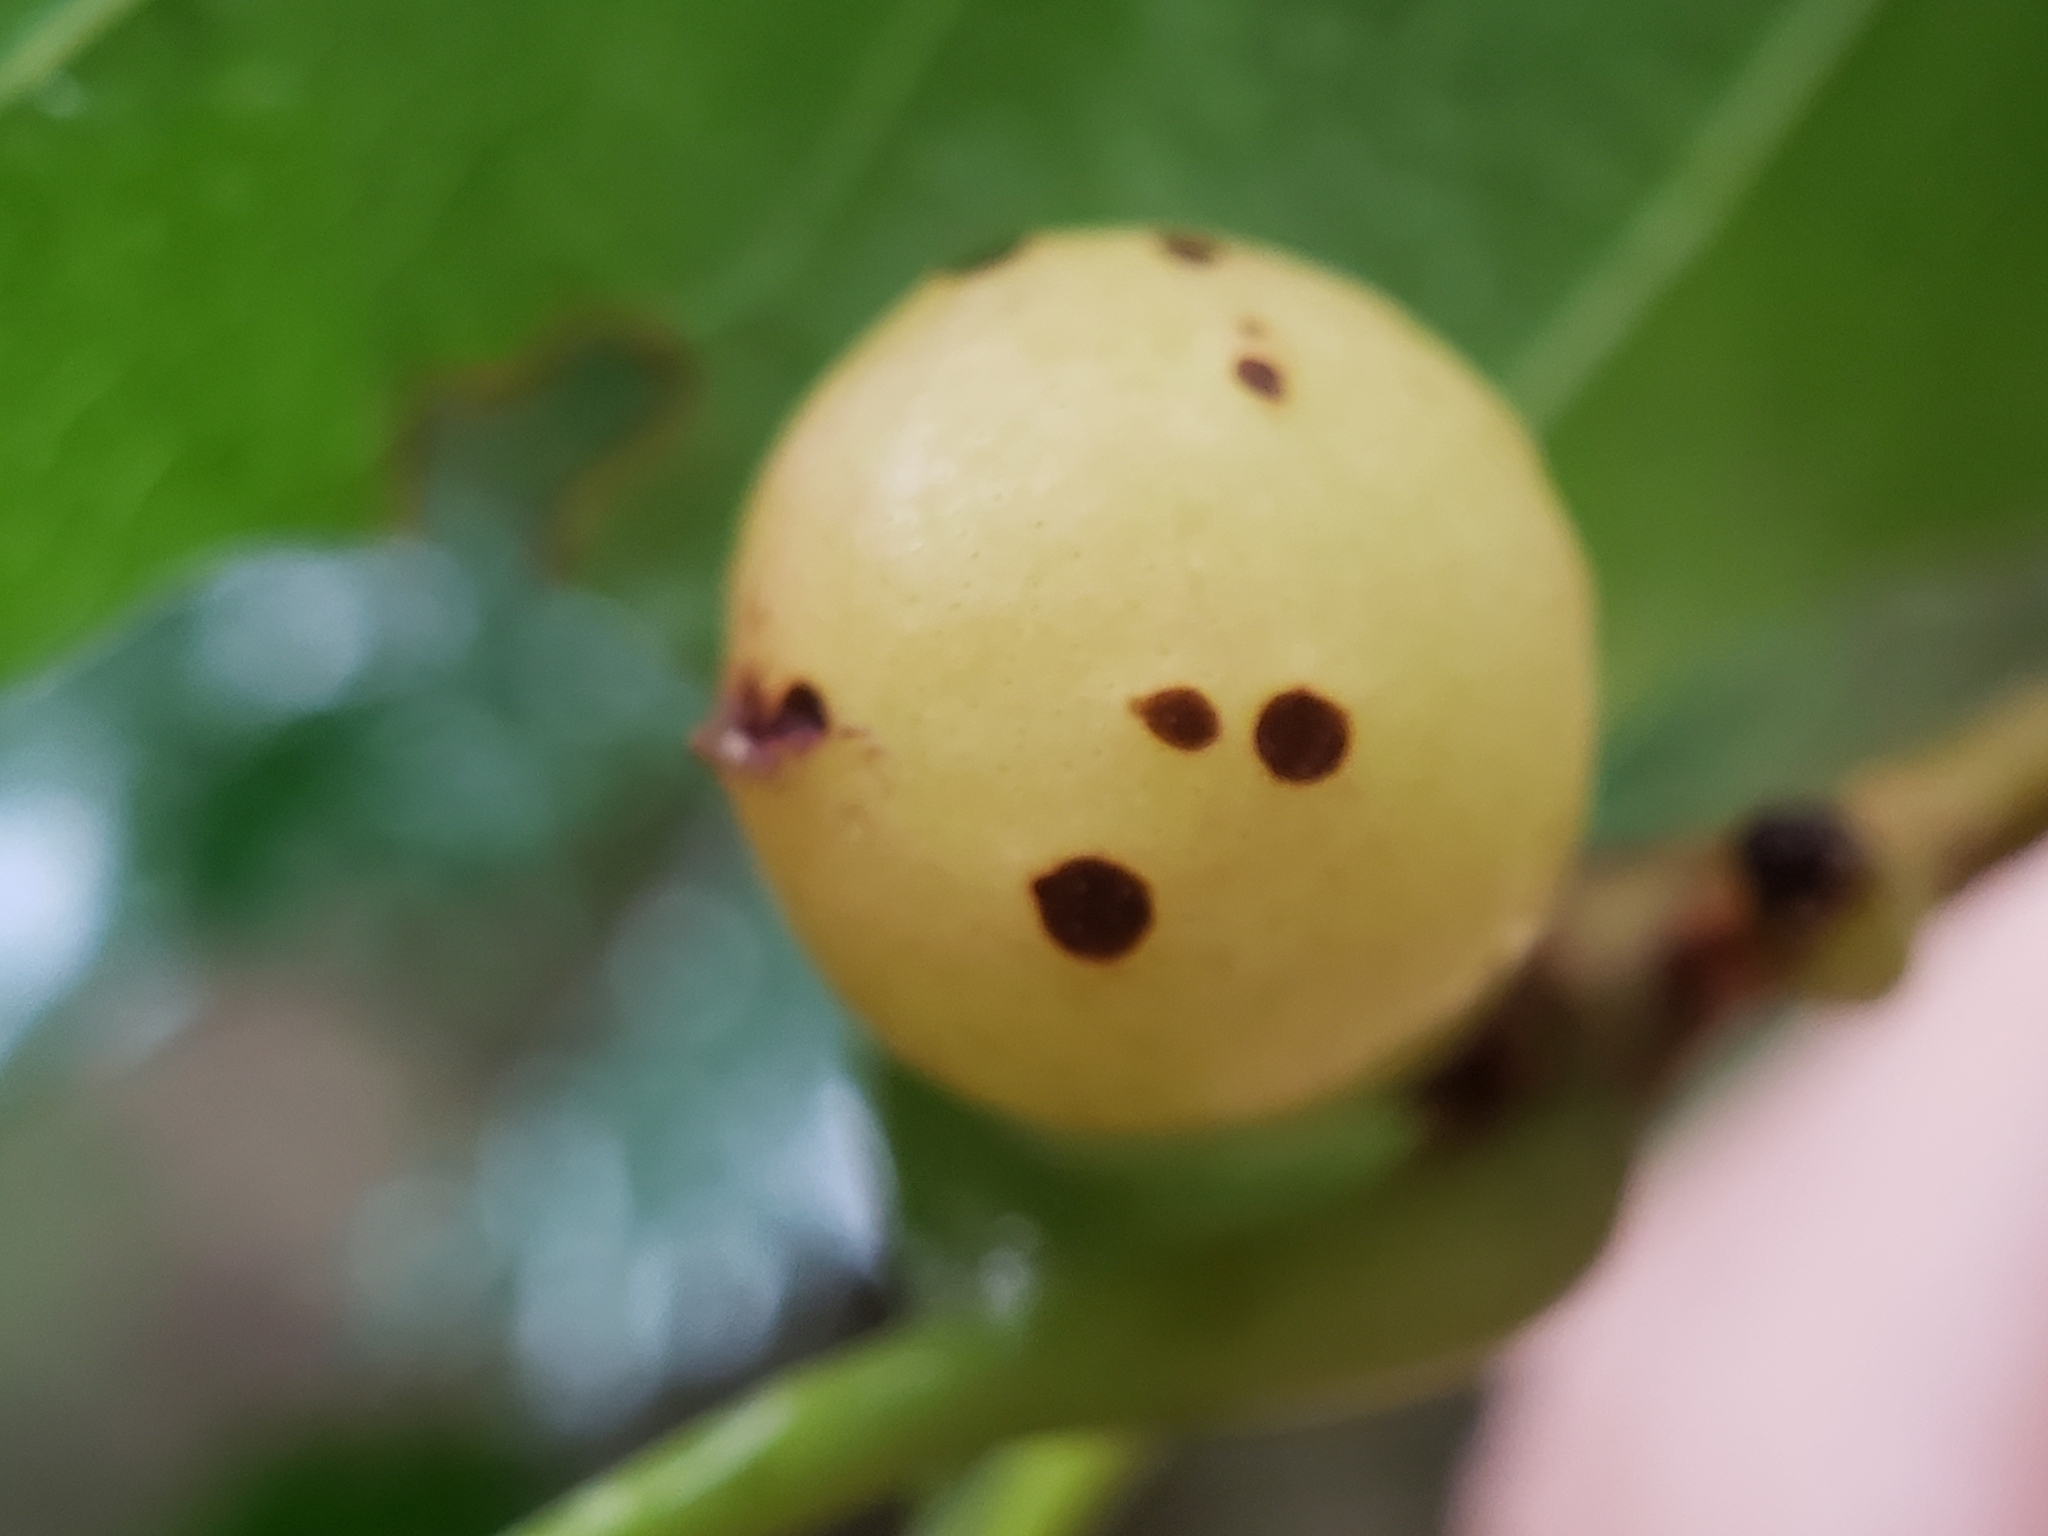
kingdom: Animalia
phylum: Arthropoda
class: Insecta
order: Hymenoptera
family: Cynipidae
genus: Amphibolips
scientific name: Amphibolips
